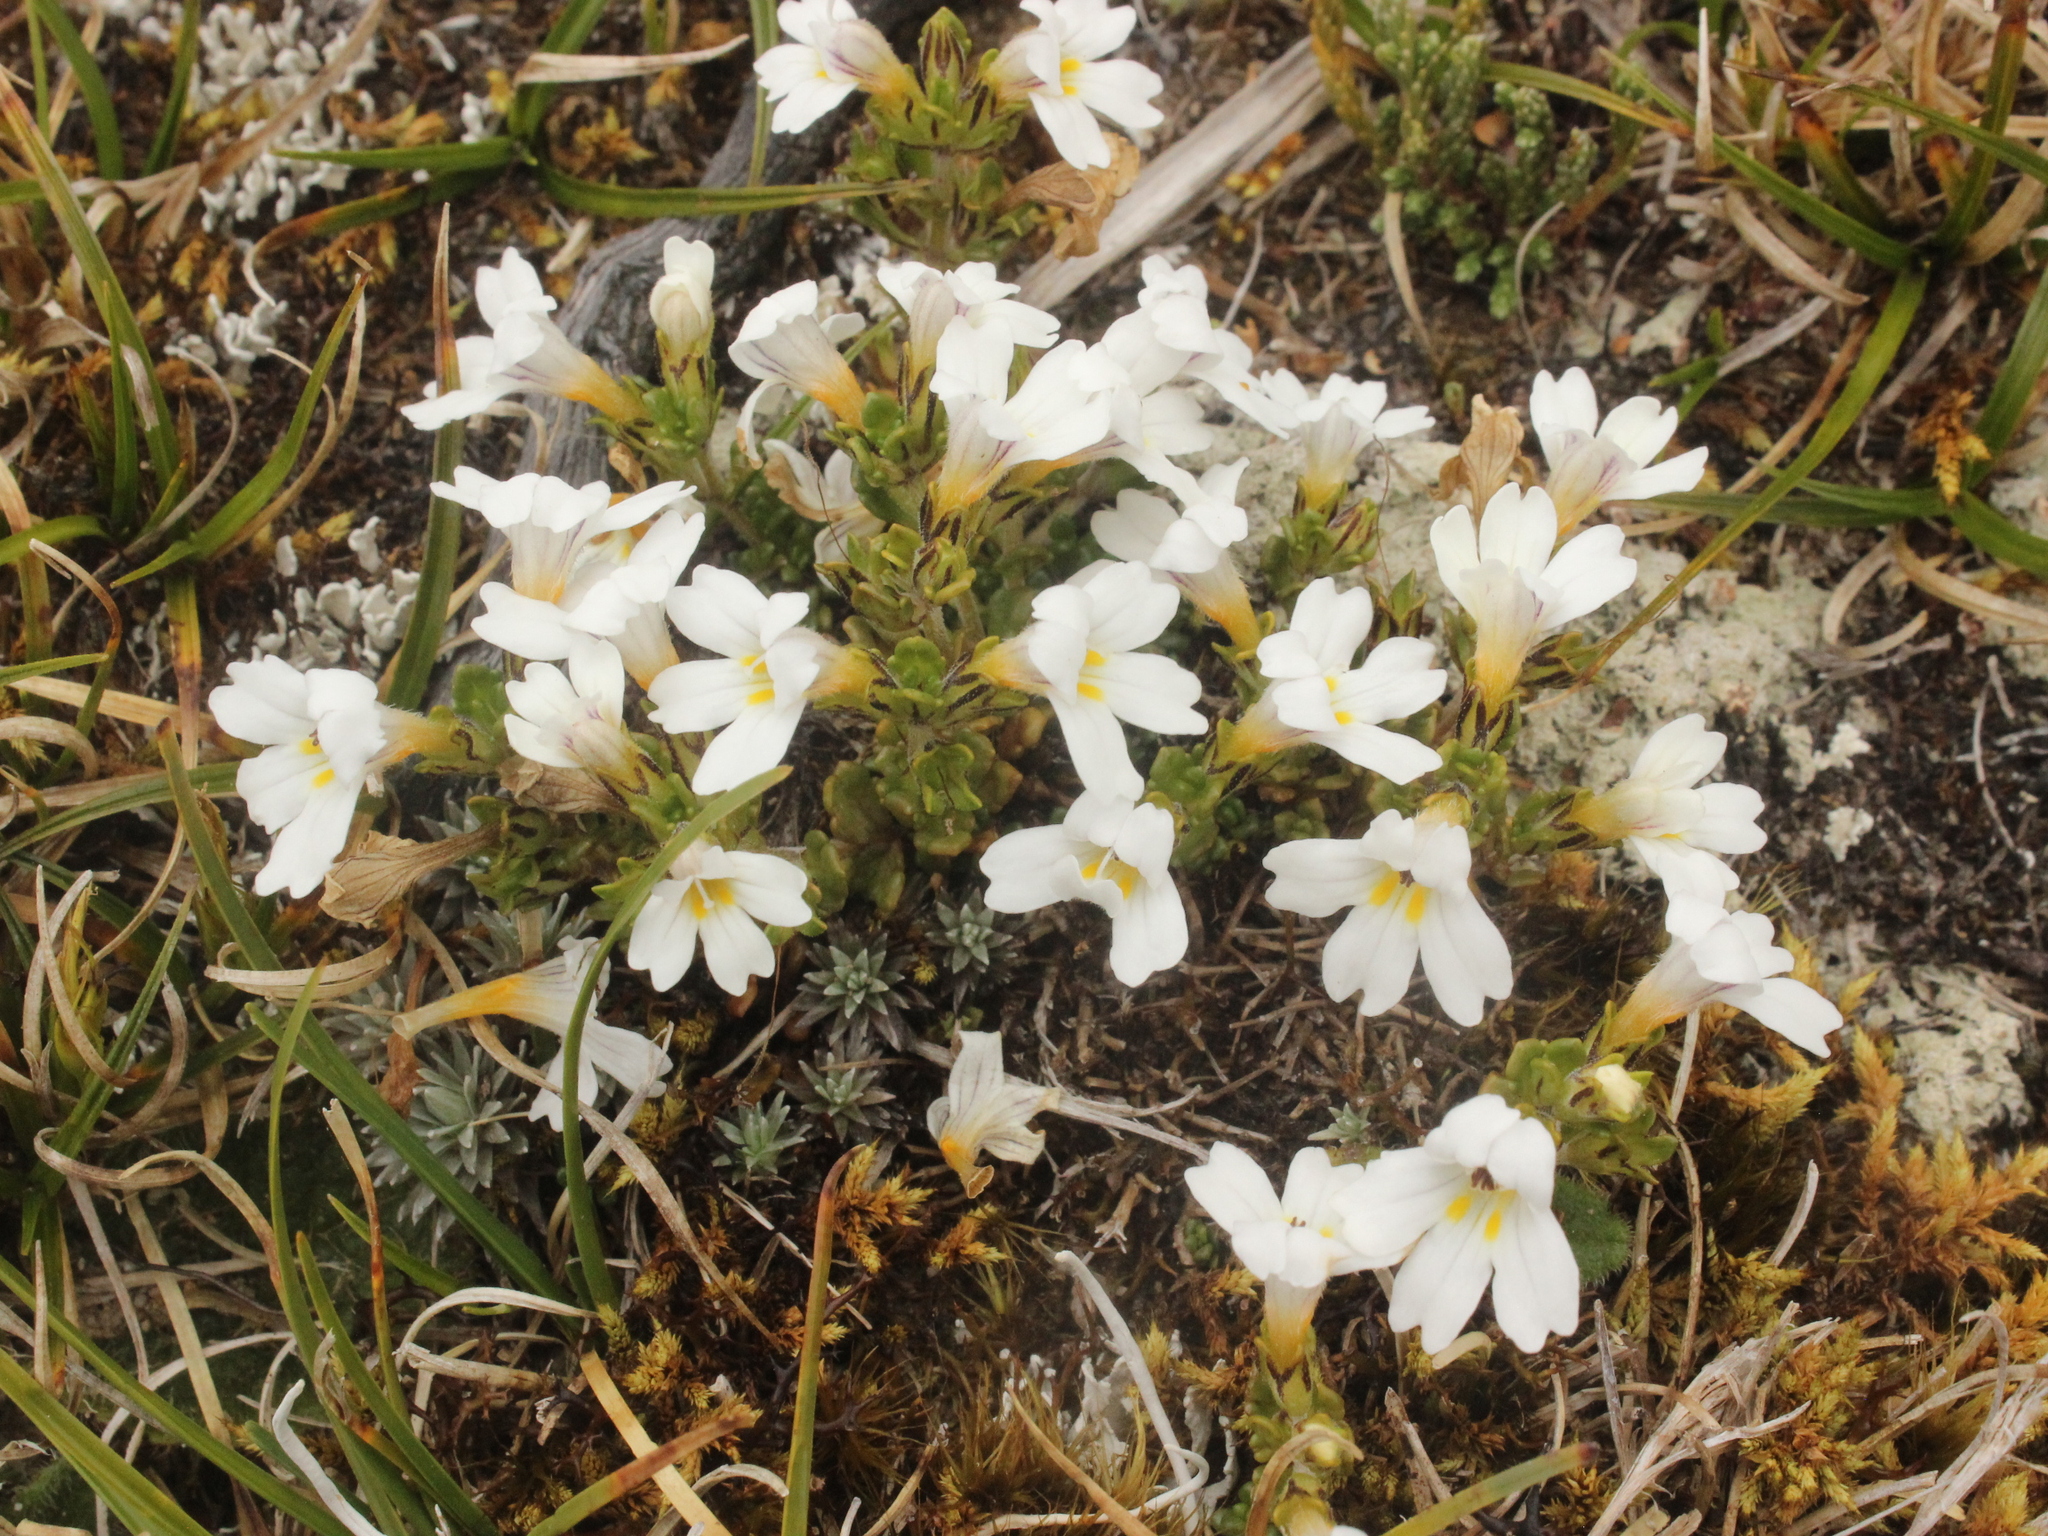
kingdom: Plantae
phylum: Tracheophyta
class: Magnoliopsida
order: Lamiales
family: Orobanchaceae
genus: Euphrasia
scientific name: Euphrasia drucei
